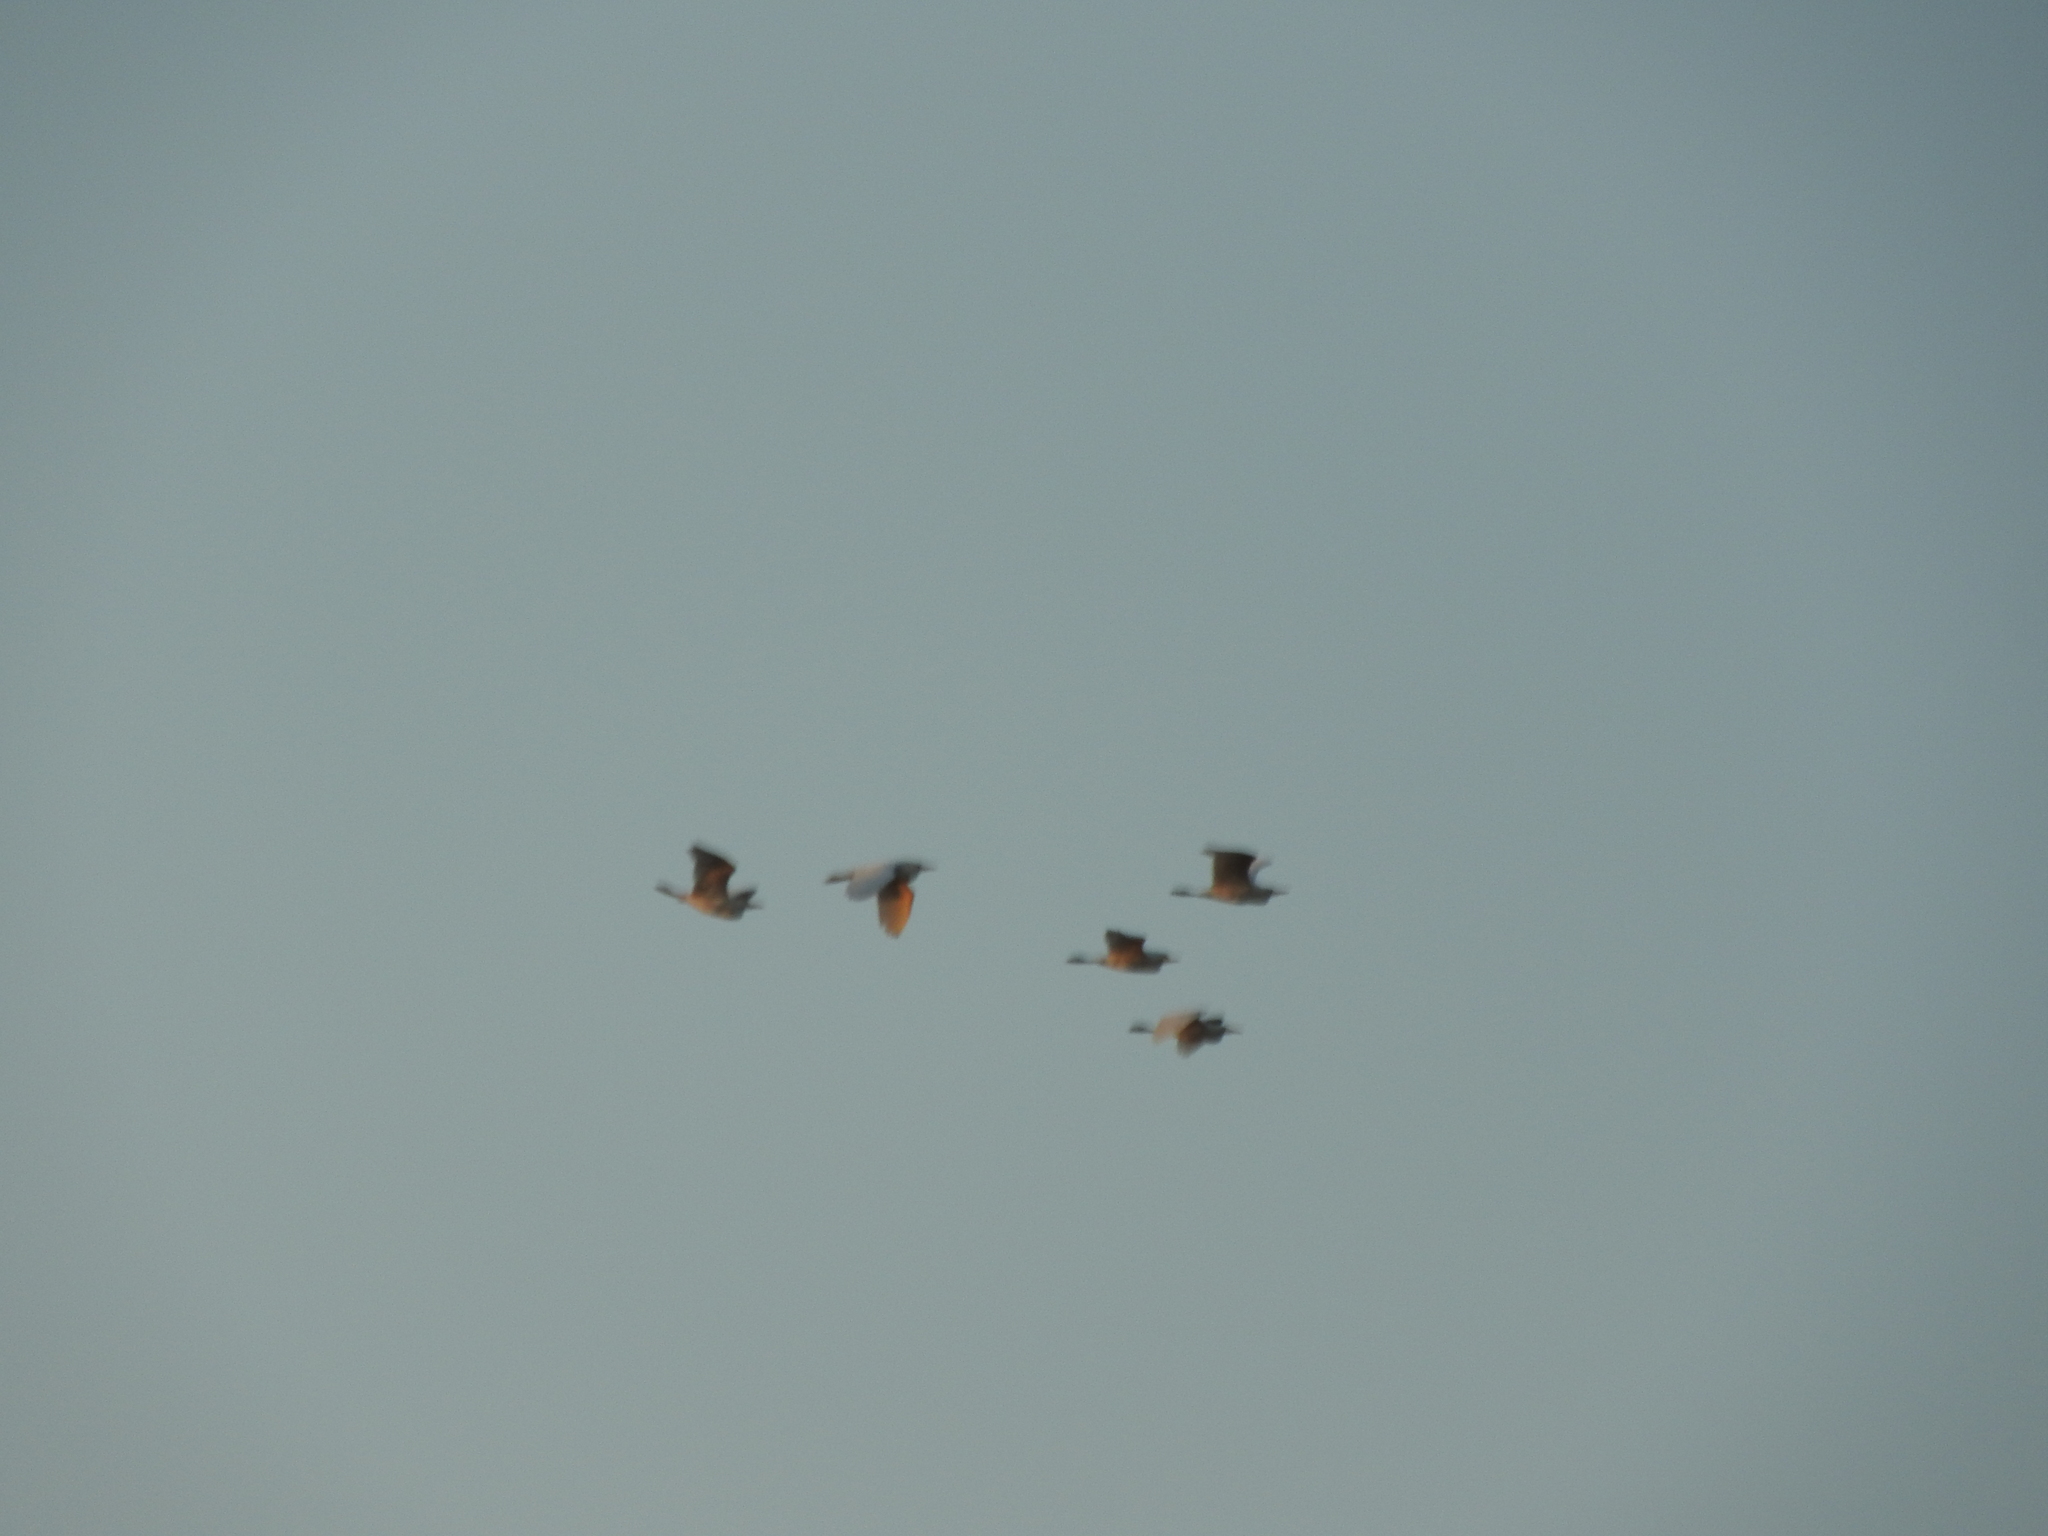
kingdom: Animalia
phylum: Chordata
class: Aves
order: Pelecaniformes
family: Ardeidae
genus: Bubulcus
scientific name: Bubulcus ibis
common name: Cattle egret
